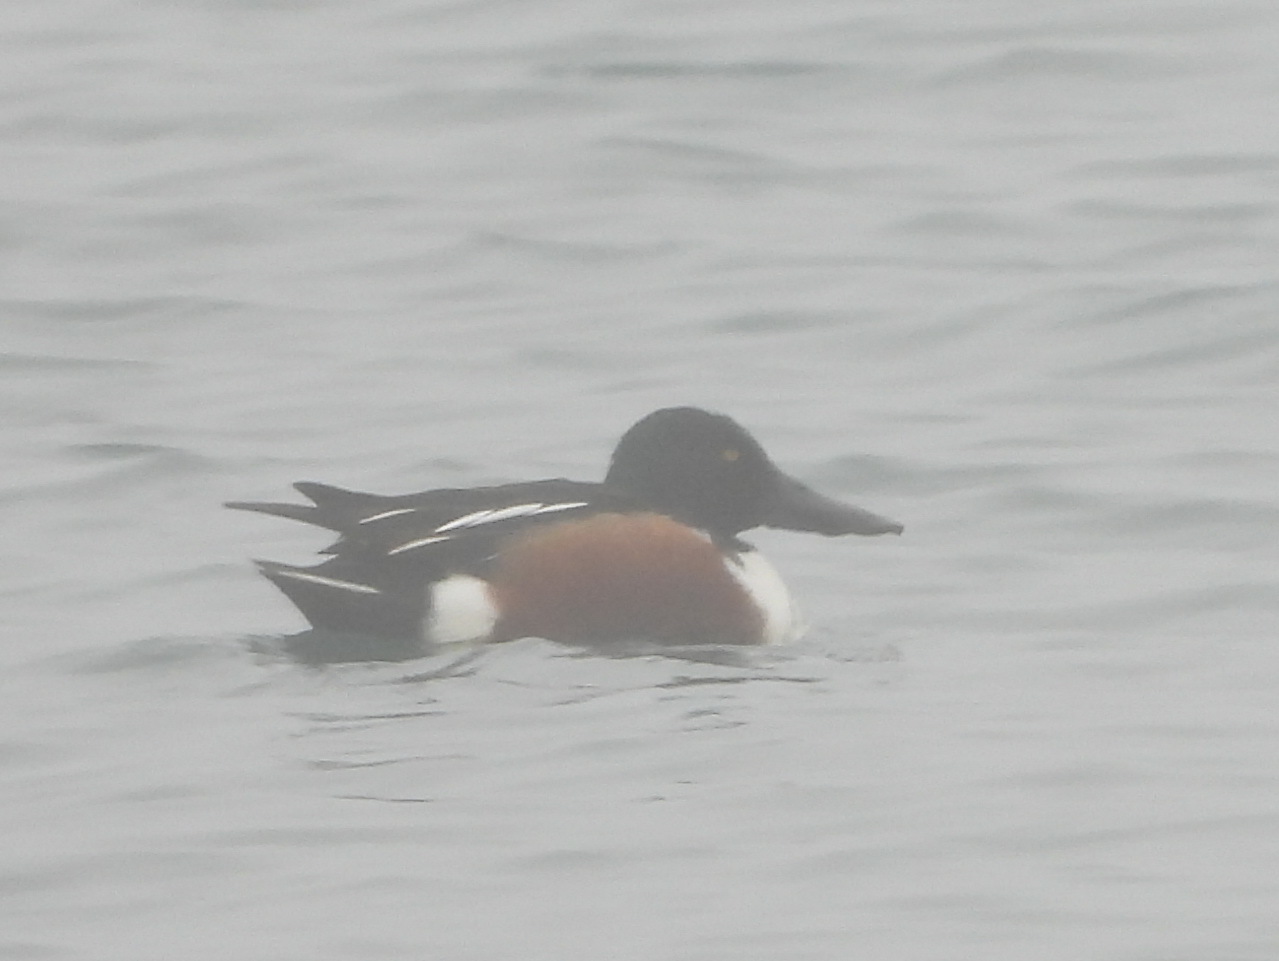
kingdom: Animalia
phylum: Chordata
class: Aves
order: Anseriformes
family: Anatidae
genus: Spatula
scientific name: Spatula clypeata
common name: Northern shoveler
